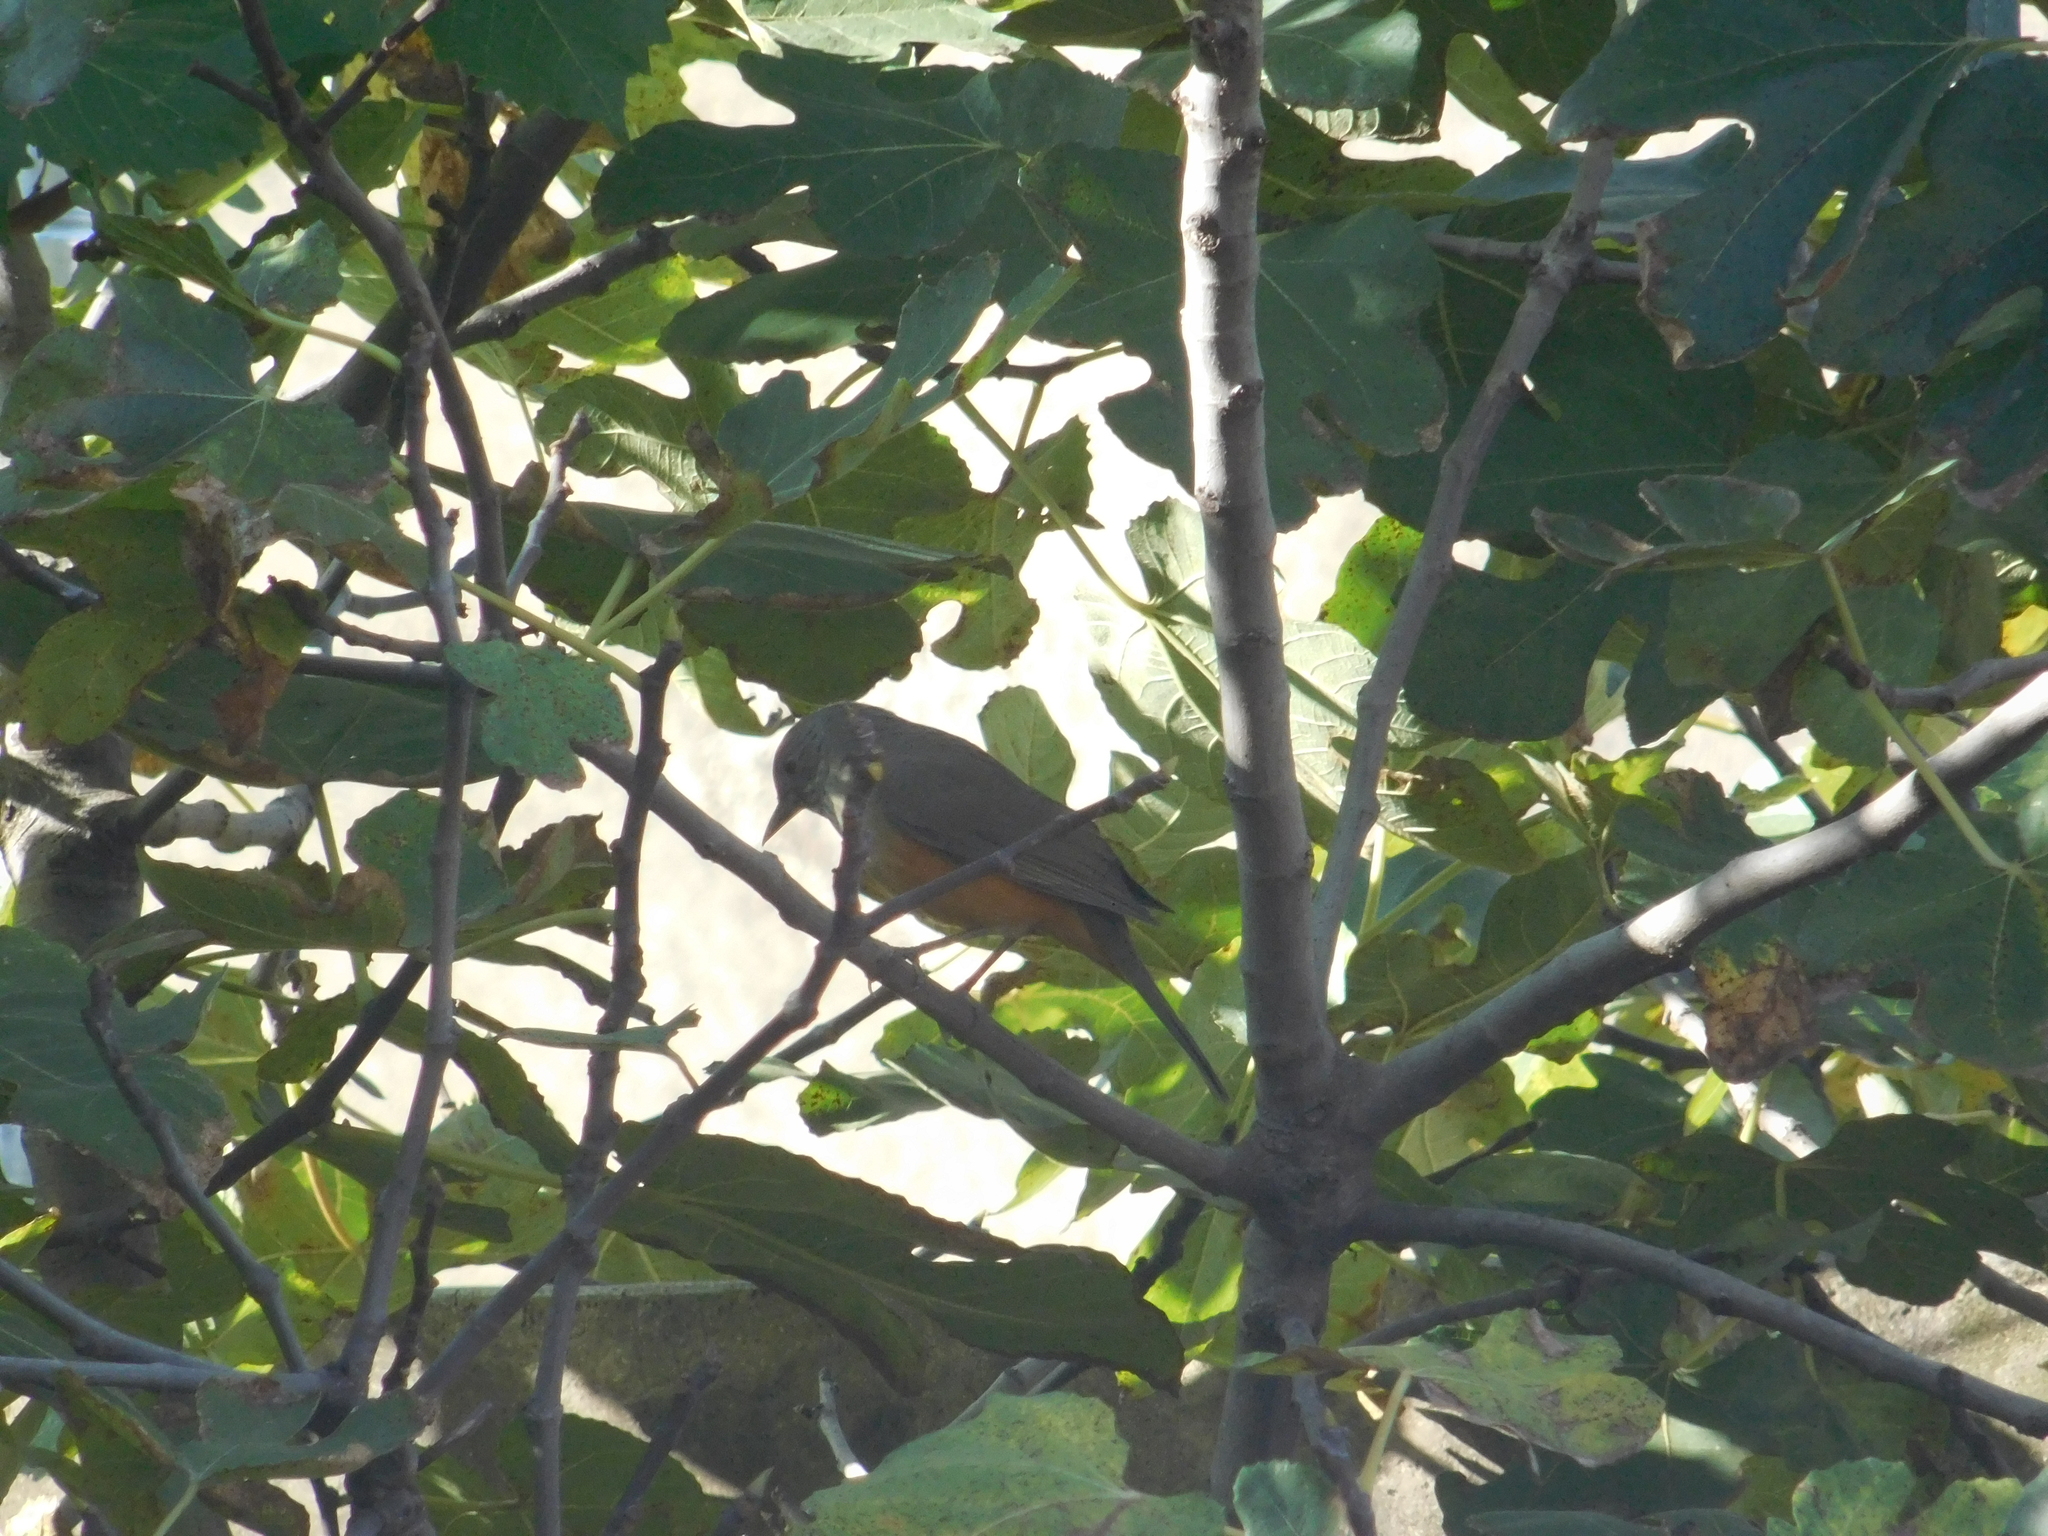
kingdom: Animalia
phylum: Chordata
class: Aves
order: Passeriformes
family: Turdidae
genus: Turdus
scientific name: Turdus rufiventris
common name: Rufous-bellied thrush
